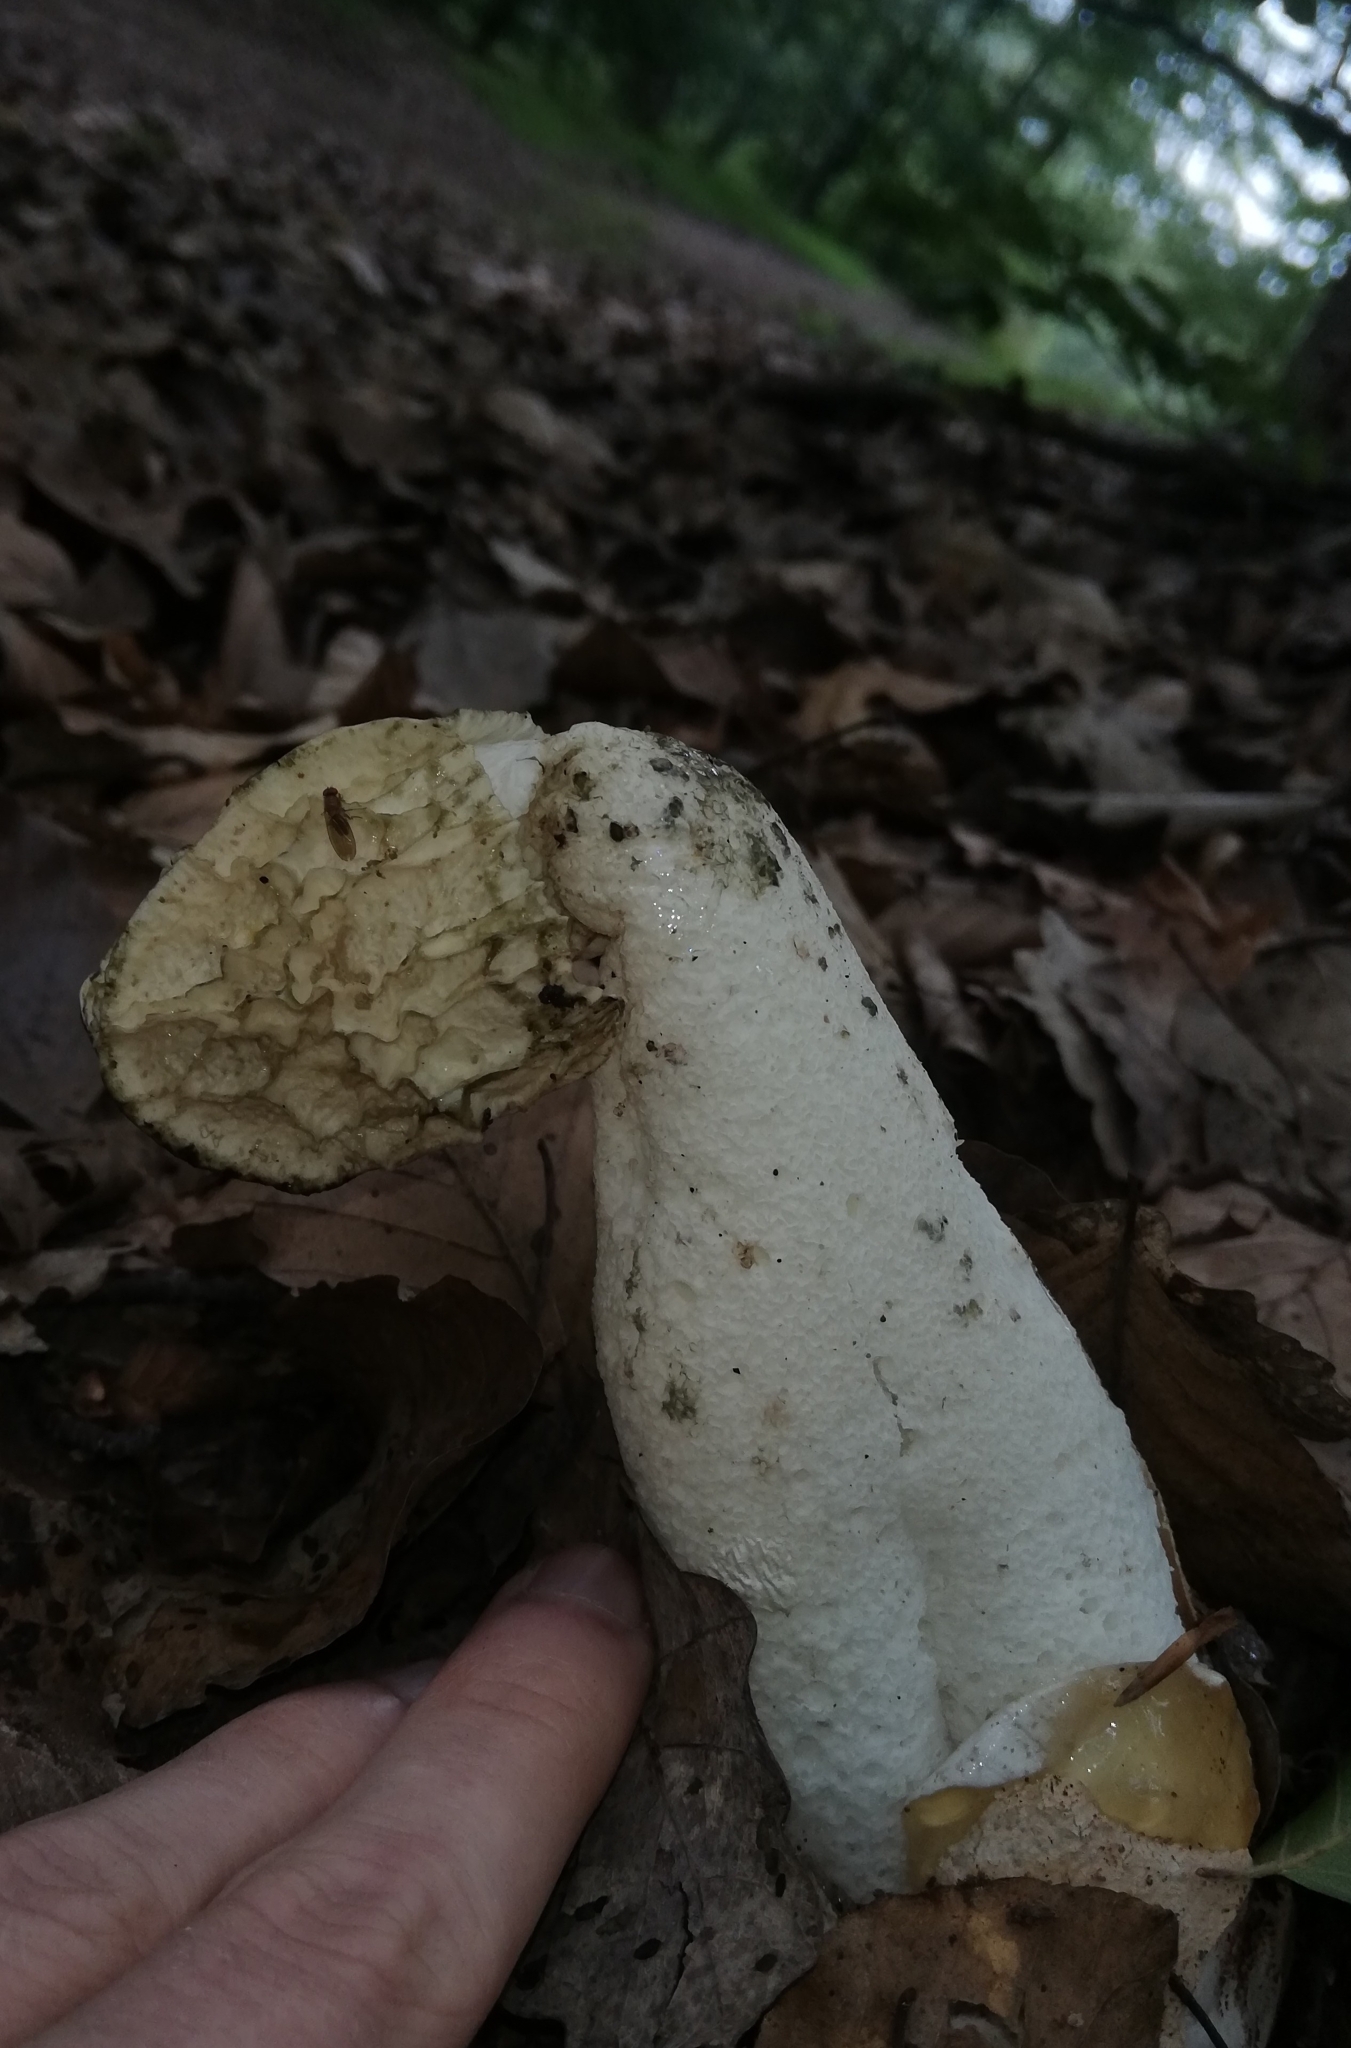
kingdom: Fungi
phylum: Basidiomycota
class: Agaricomycetes
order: Phallales
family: Phallaceae
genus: Phallus
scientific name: Phallus impudicus
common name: Common stinkhorn
